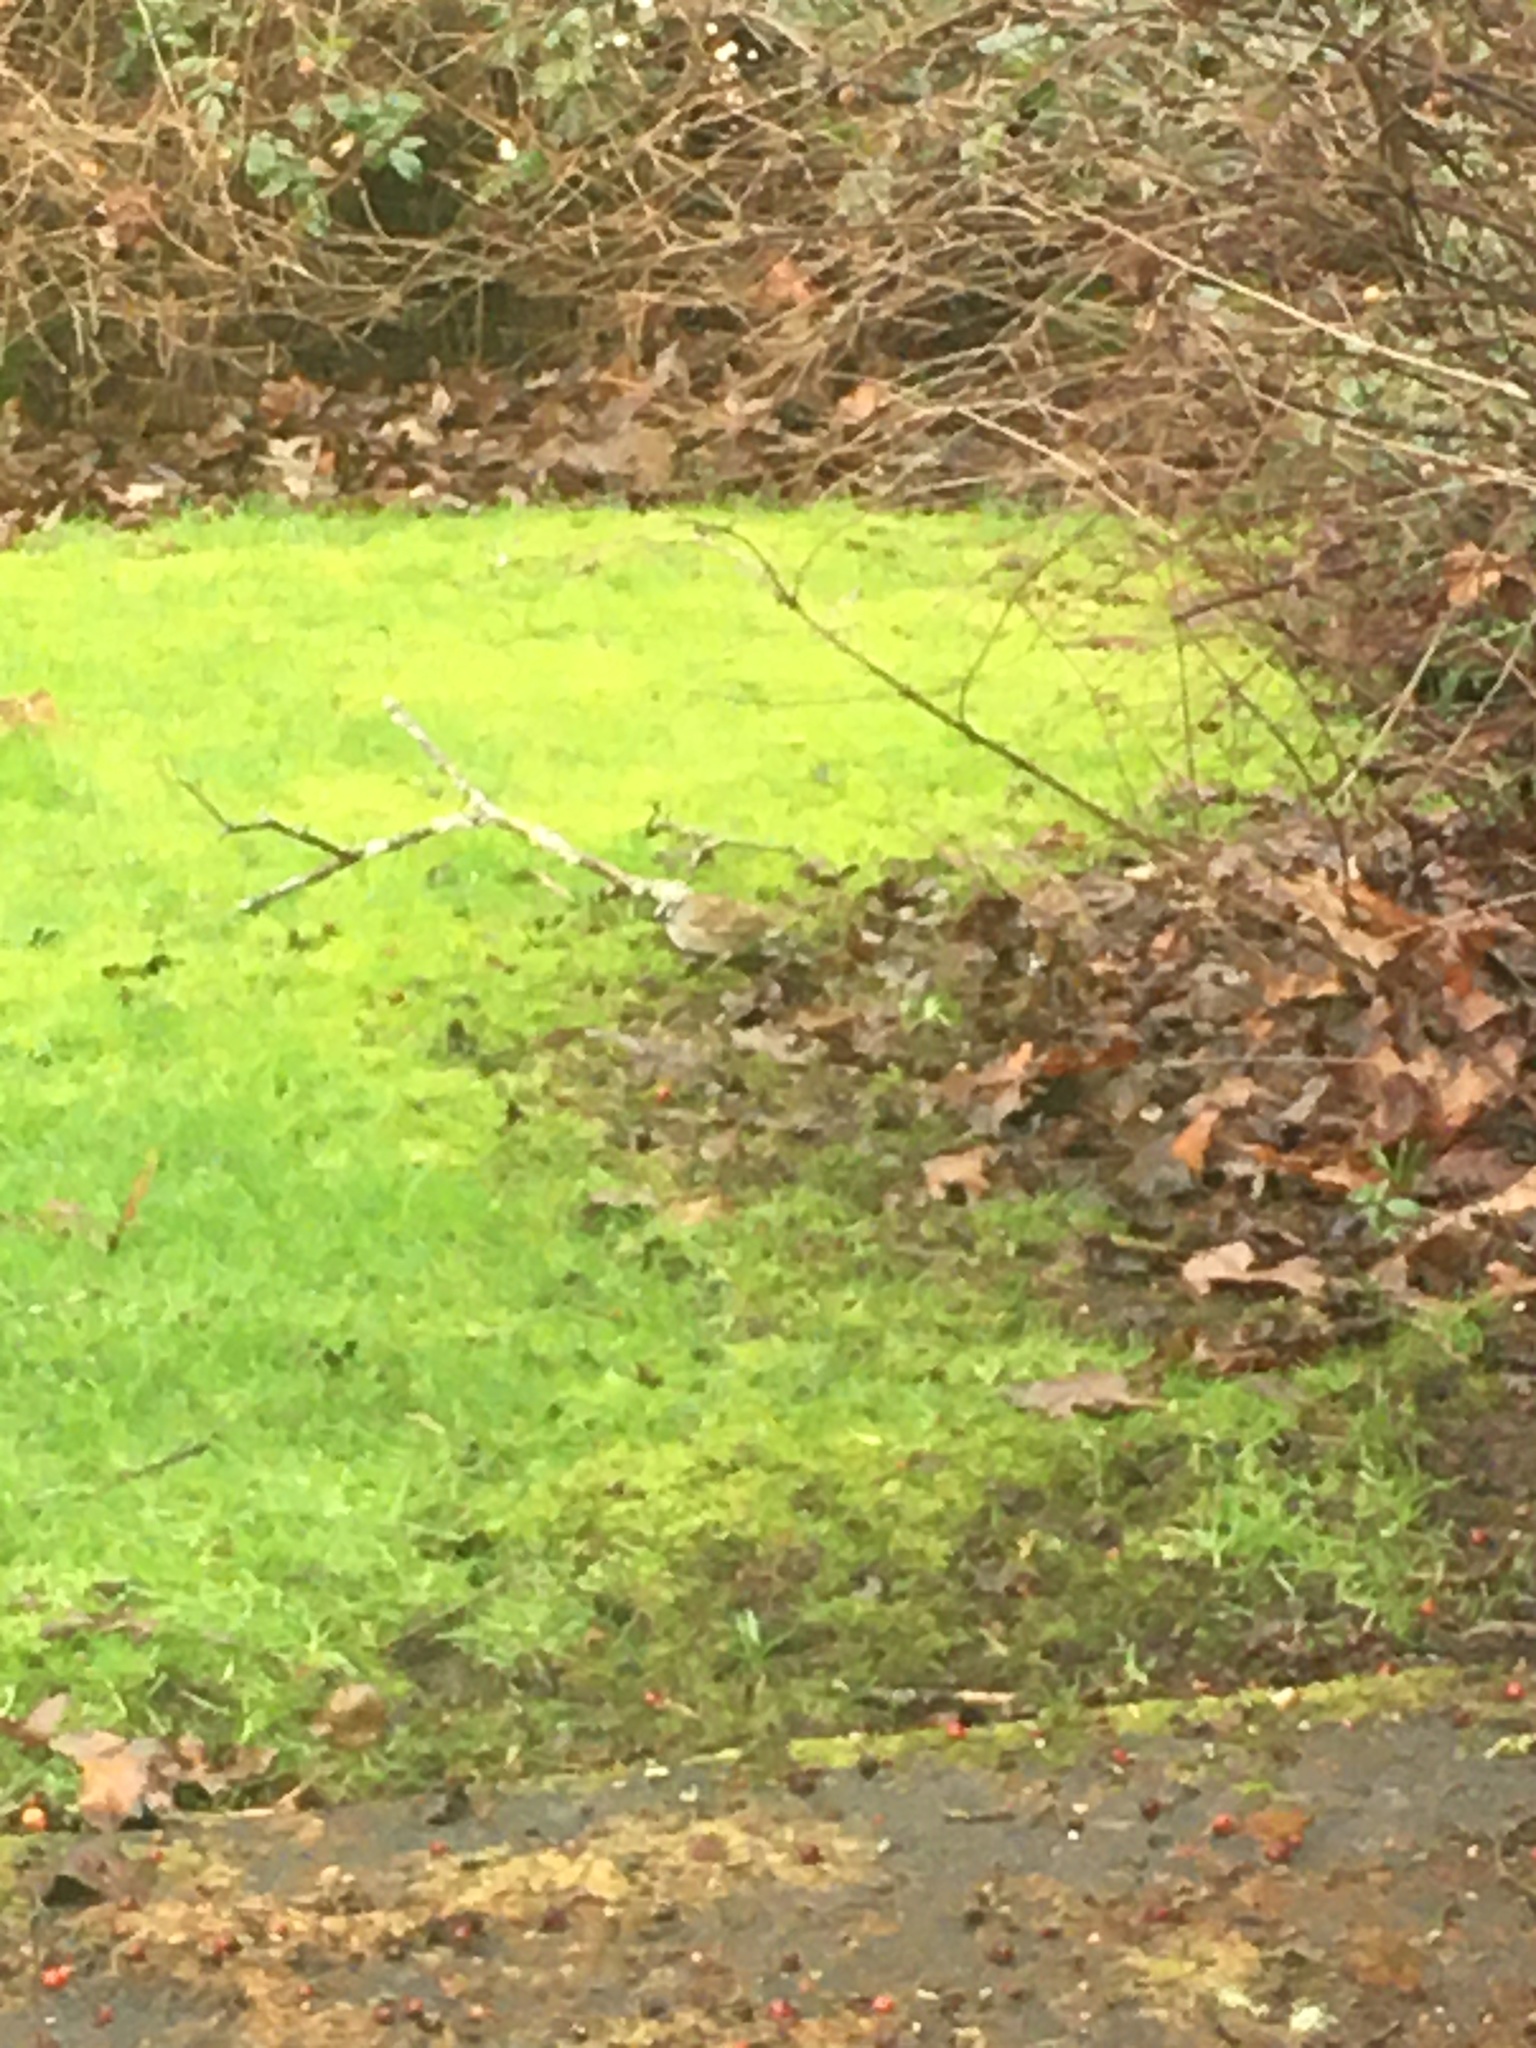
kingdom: Animalia
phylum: Chordata
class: Aves
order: Passeriformes
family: Passerellidae
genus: Zonotrichia
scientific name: Zonotrichia leucophrys
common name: White-crowned sparrow
